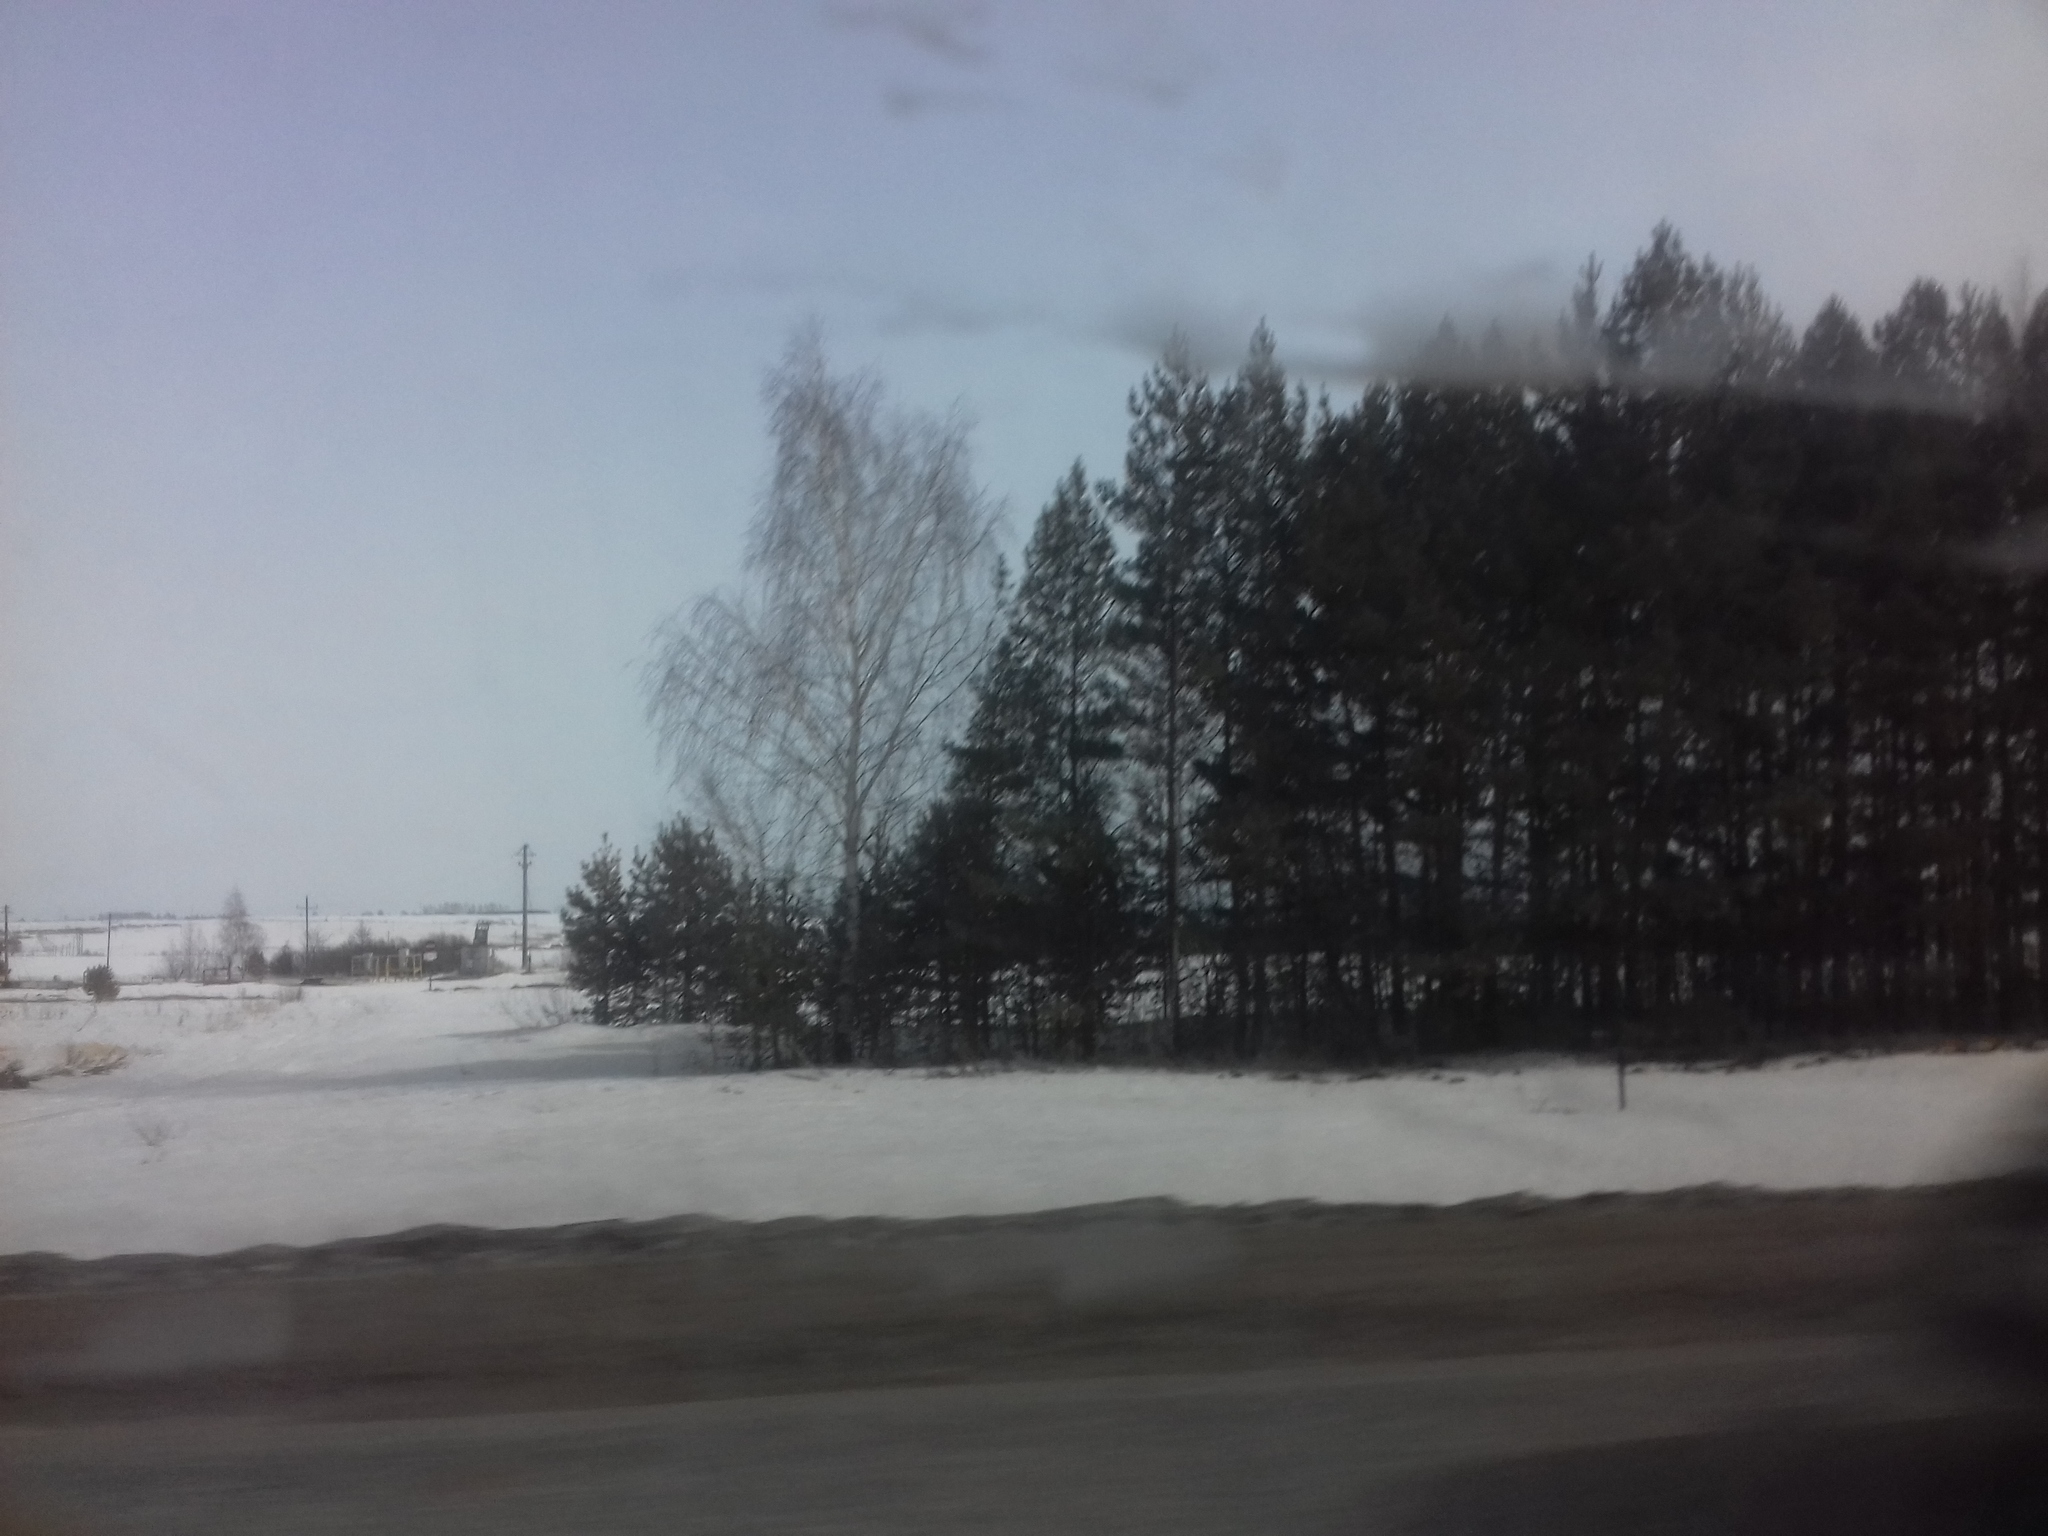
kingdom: Plantae
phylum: Tracheophyta
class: Magnoliopsida
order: Fagales
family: Betulaceae
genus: Betula
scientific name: Betula pendula
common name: Silver birch
